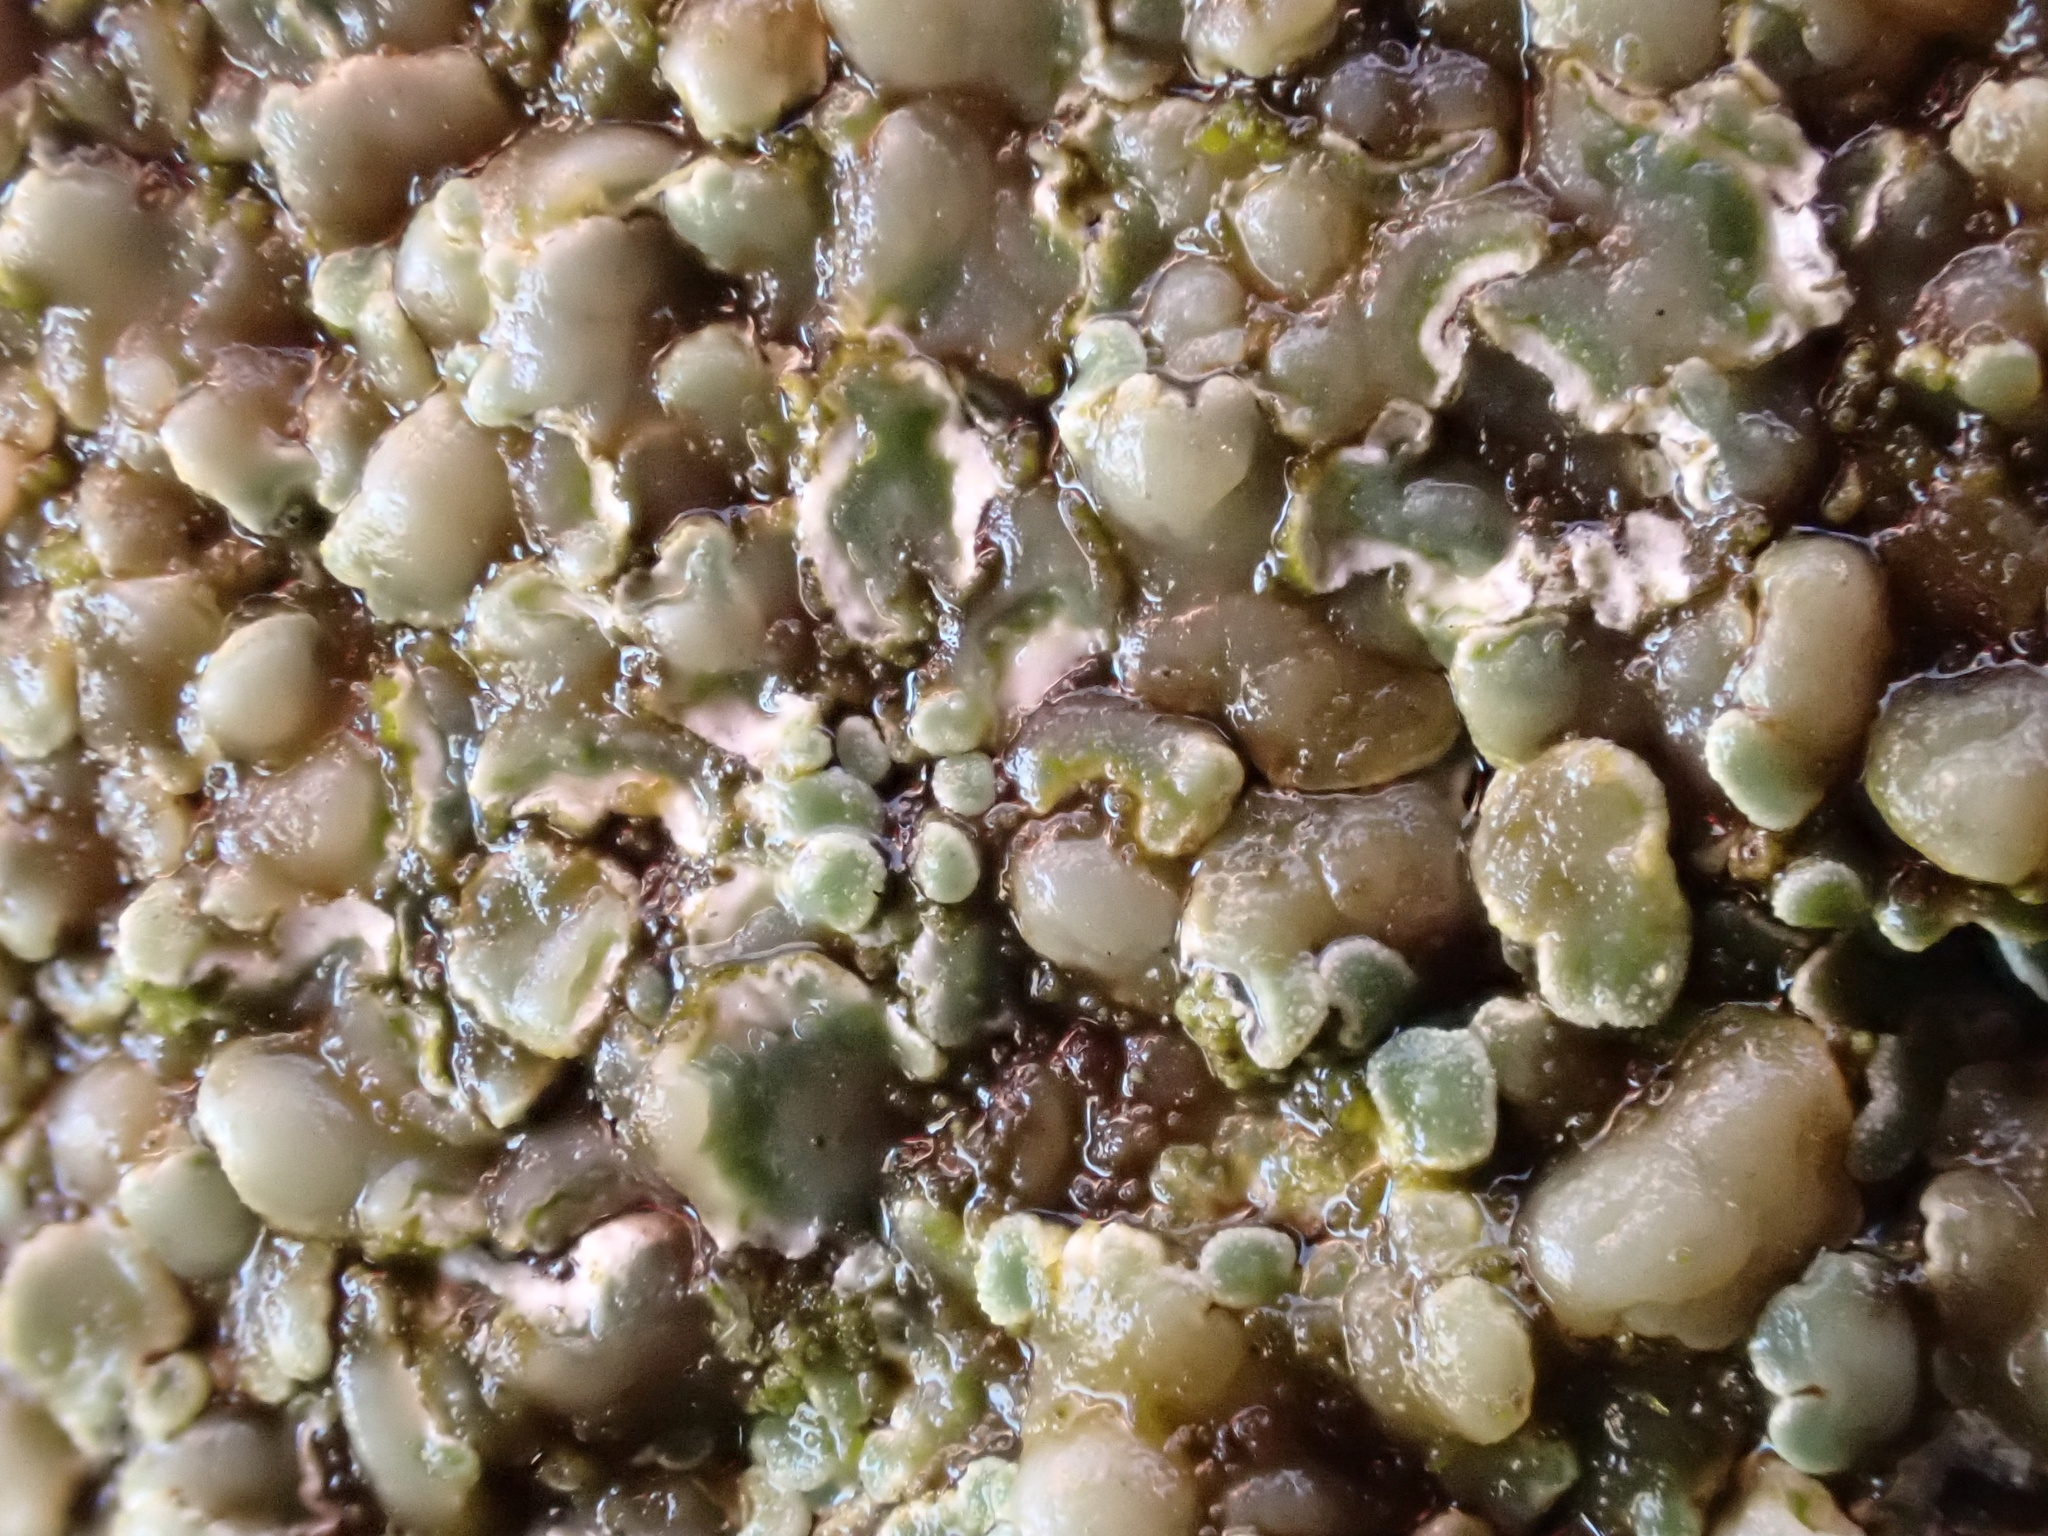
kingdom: Fungi
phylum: Ascomycota
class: Lecanoromycetes
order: Lecanorales
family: Lecanoraceae
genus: Protoparmeliopsis
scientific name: Protoparmeliopsis muralis
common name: Stonewall rim lichen
